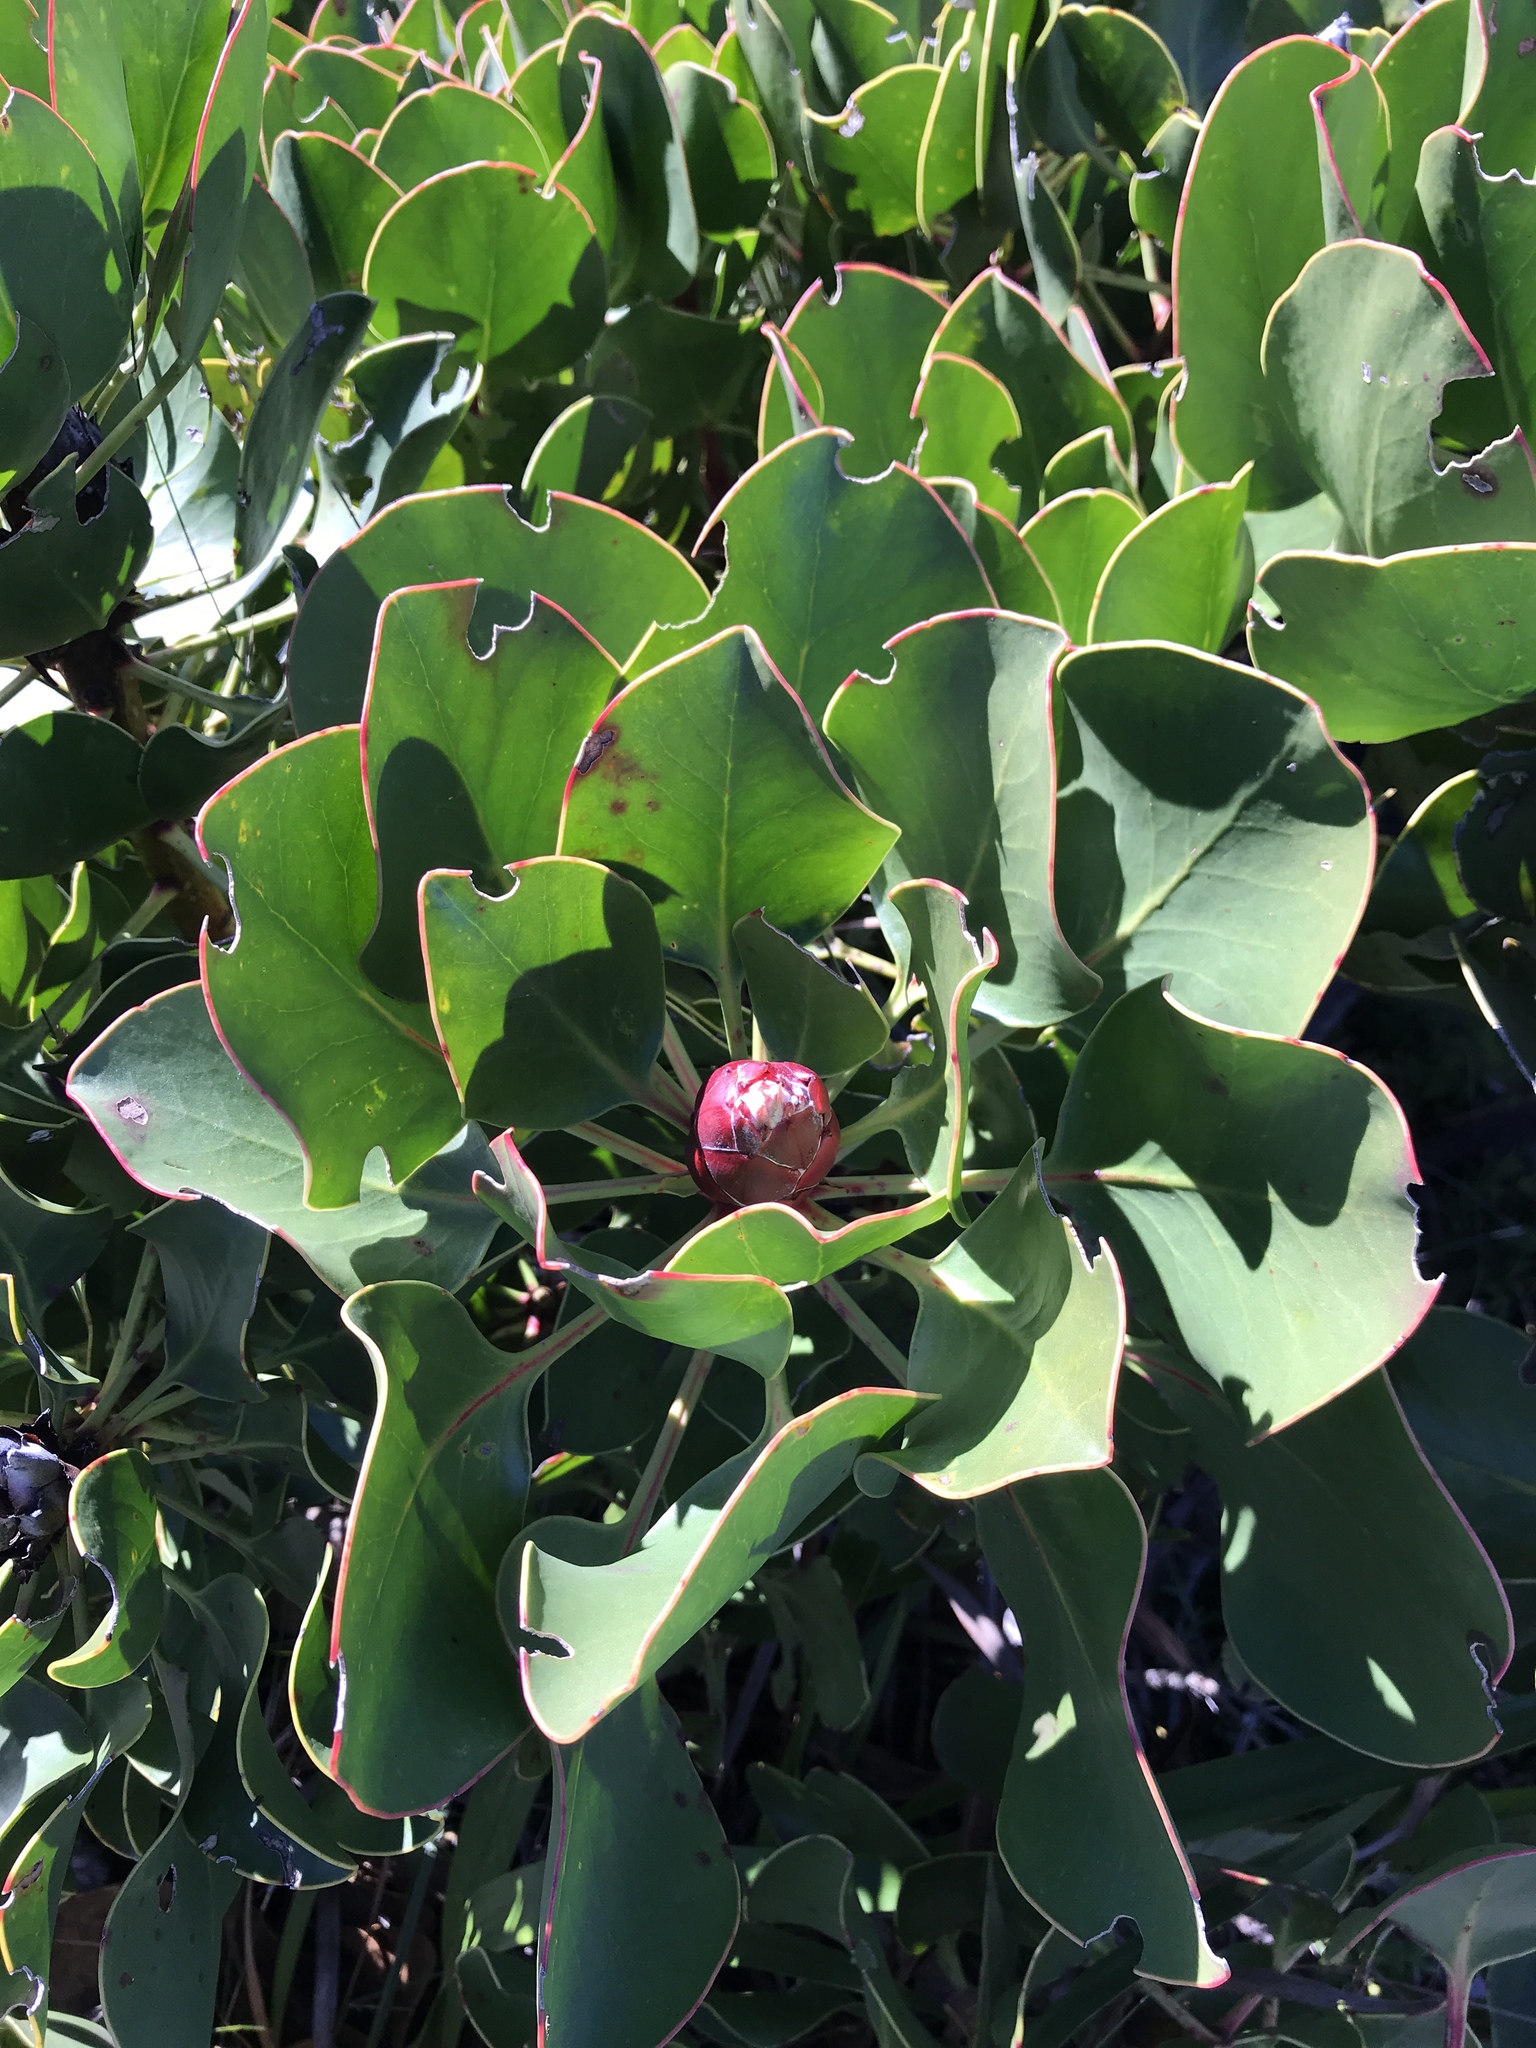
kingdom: Plantae
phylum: Tracheophyta
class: Magnoliopsida
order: Proteales
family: Proteaceae
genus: Protea
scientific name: Protea cynaroides
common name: King protea
